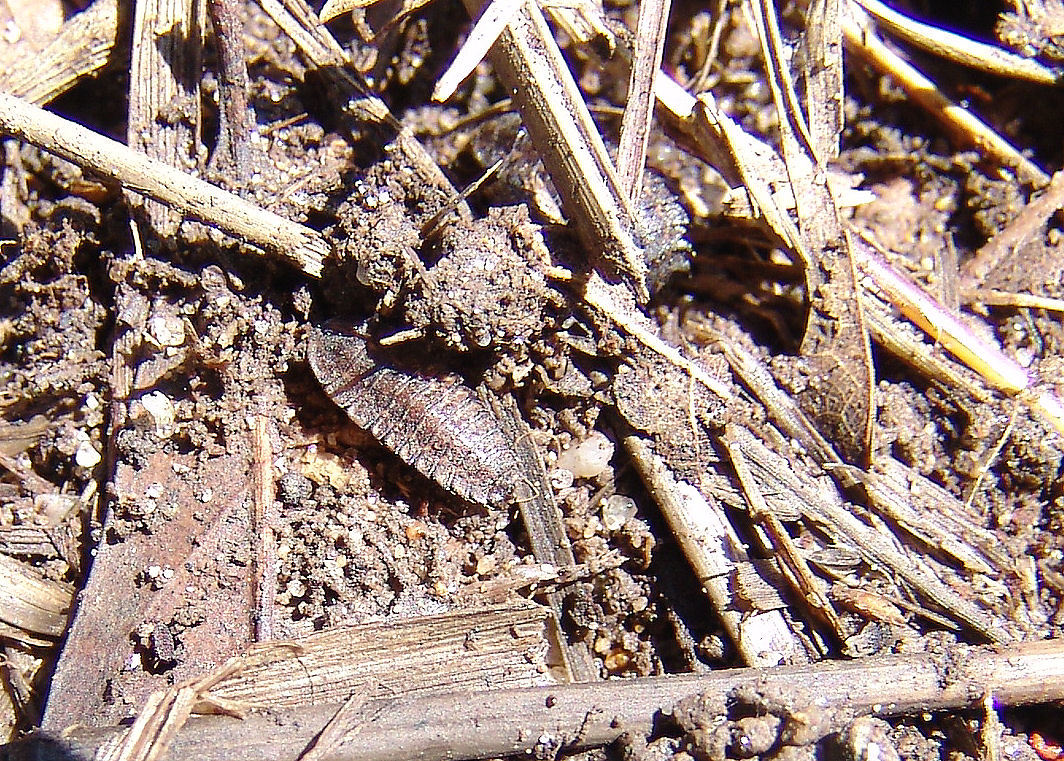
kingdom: Animalia
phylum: Arthropoda
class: Insecta
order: Coleoptera
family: Lampyridae
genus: Photuris
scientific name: Photuris
